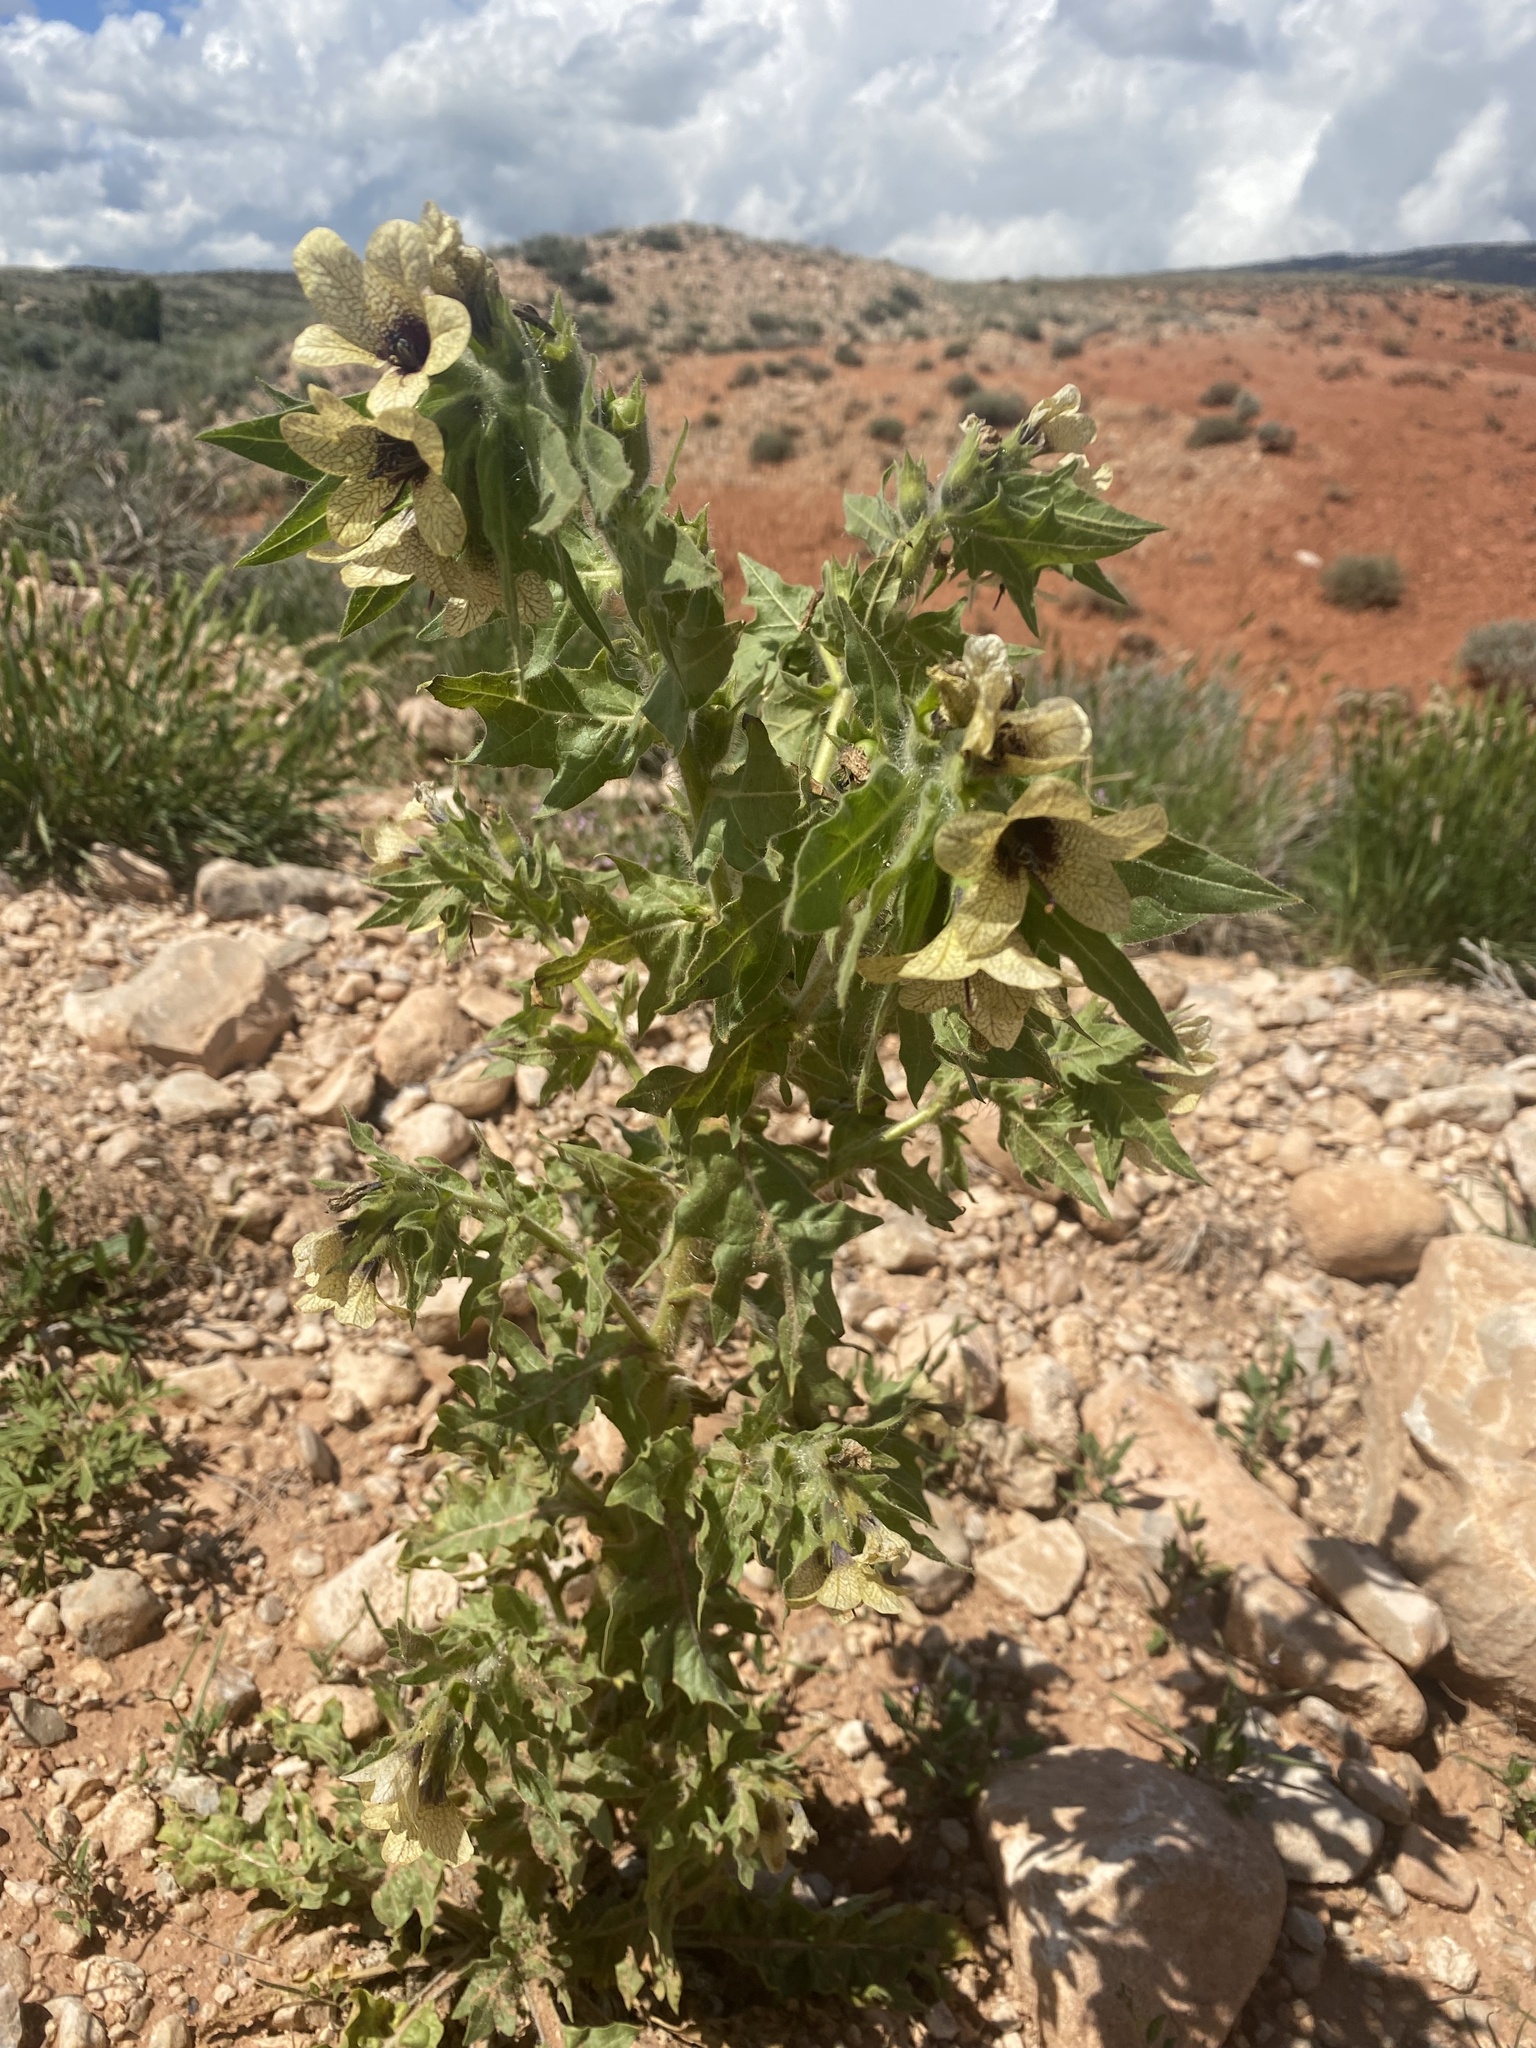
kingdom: Plantae
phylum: Tracheophyta
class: Magnoliopsida
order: Solanales
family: Solanaceae
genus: Hyoscyamus
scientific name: Hyoscyamus niger
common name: Henbane
